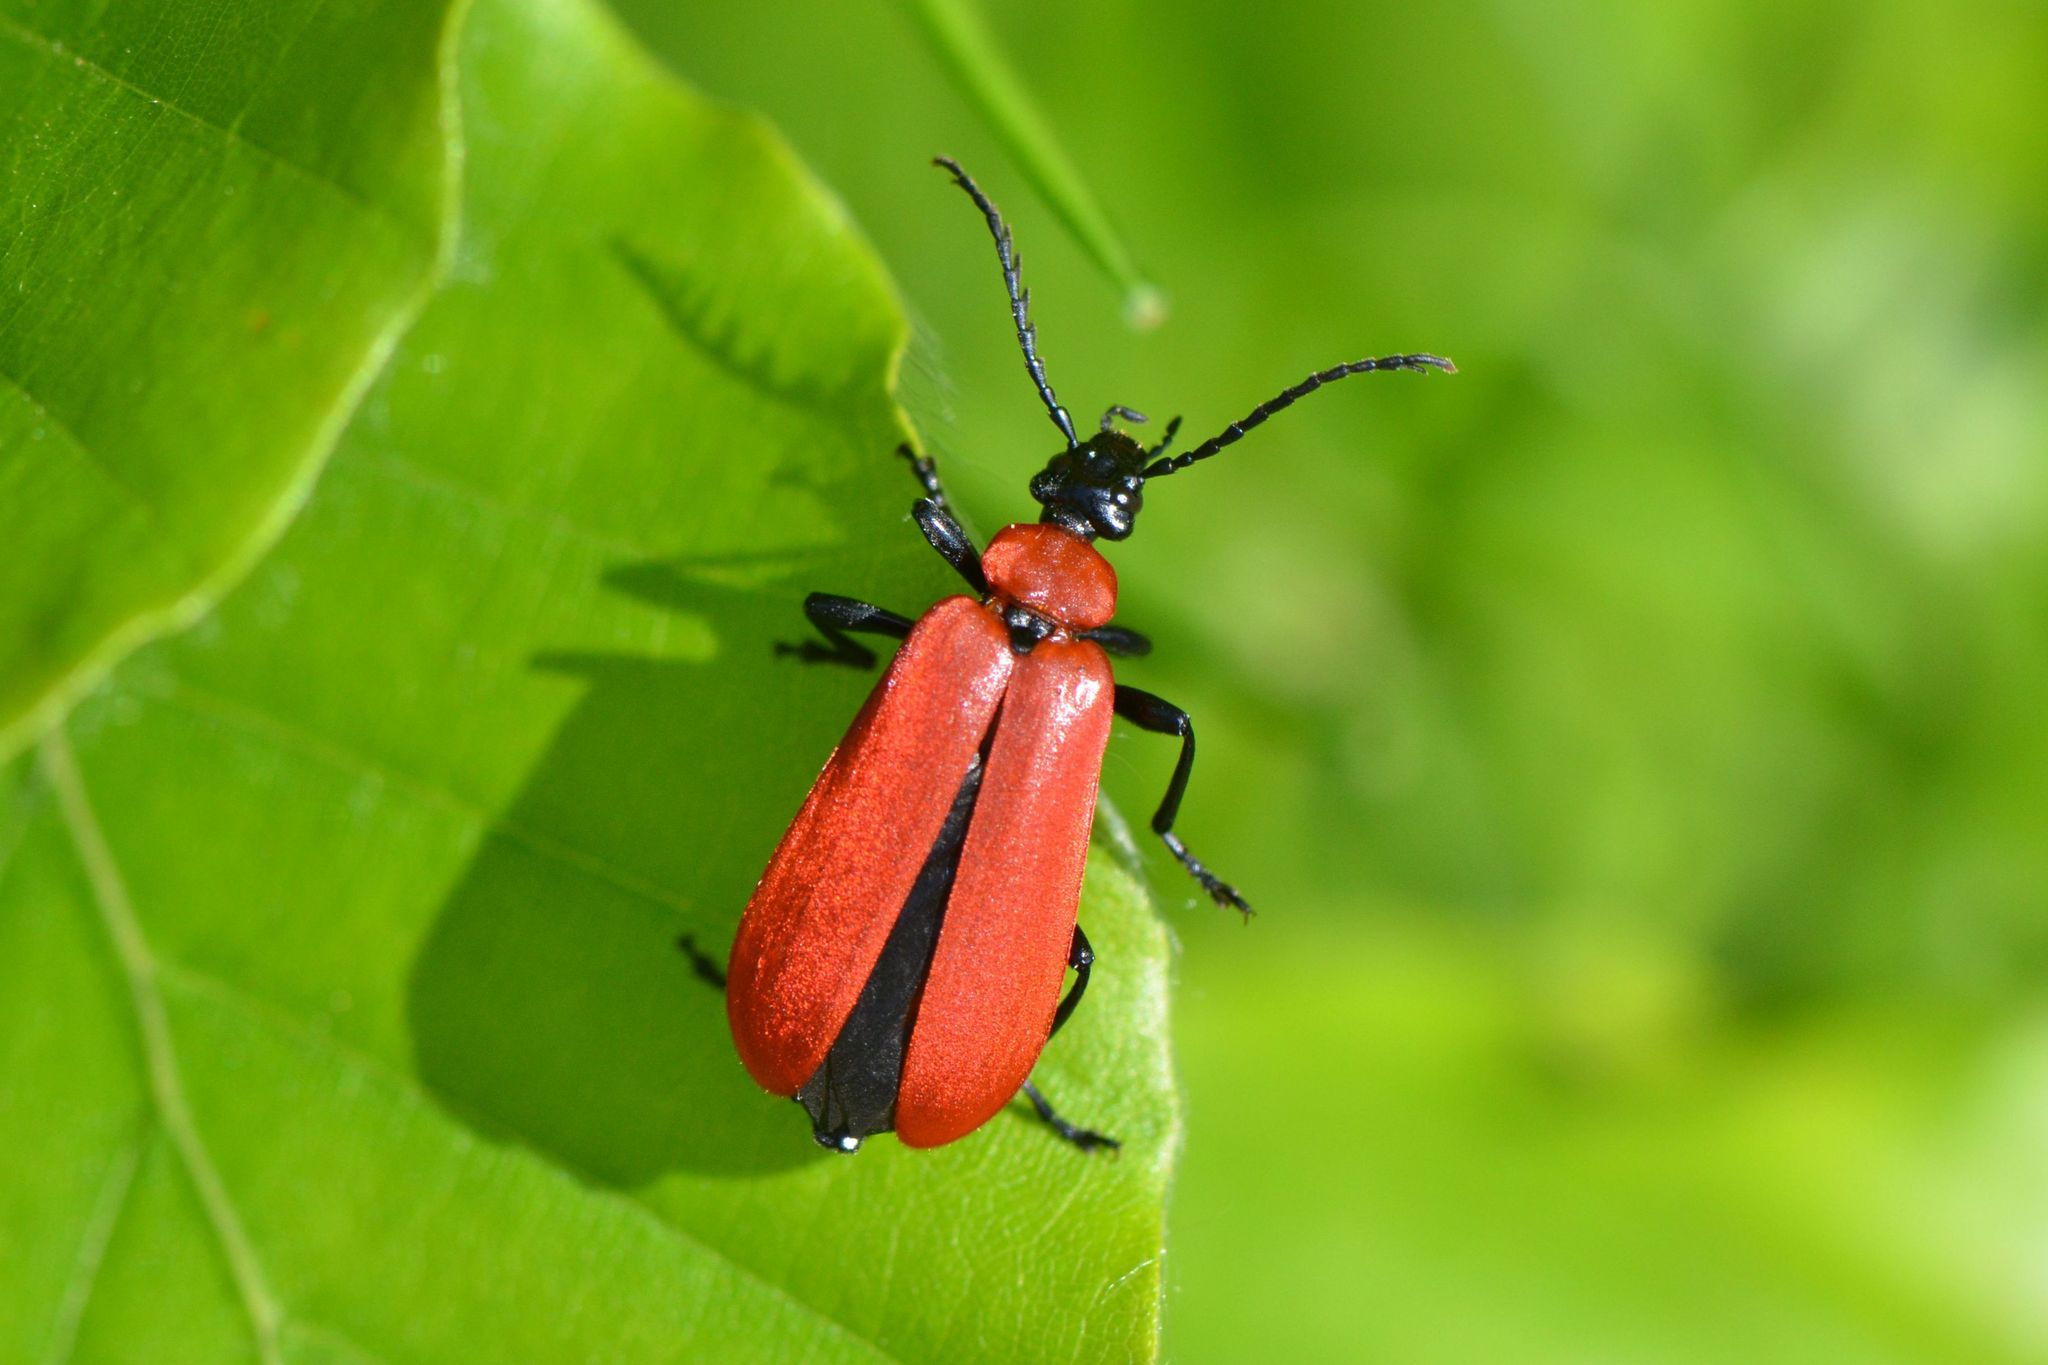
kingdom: Animalia
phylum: Arthropoda
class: Insecta
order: Coleoptera
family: Pyrochroidae
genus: Pyrochroa
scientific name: Pyrochroa coccinea
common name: Black-headed cardinal beetle
